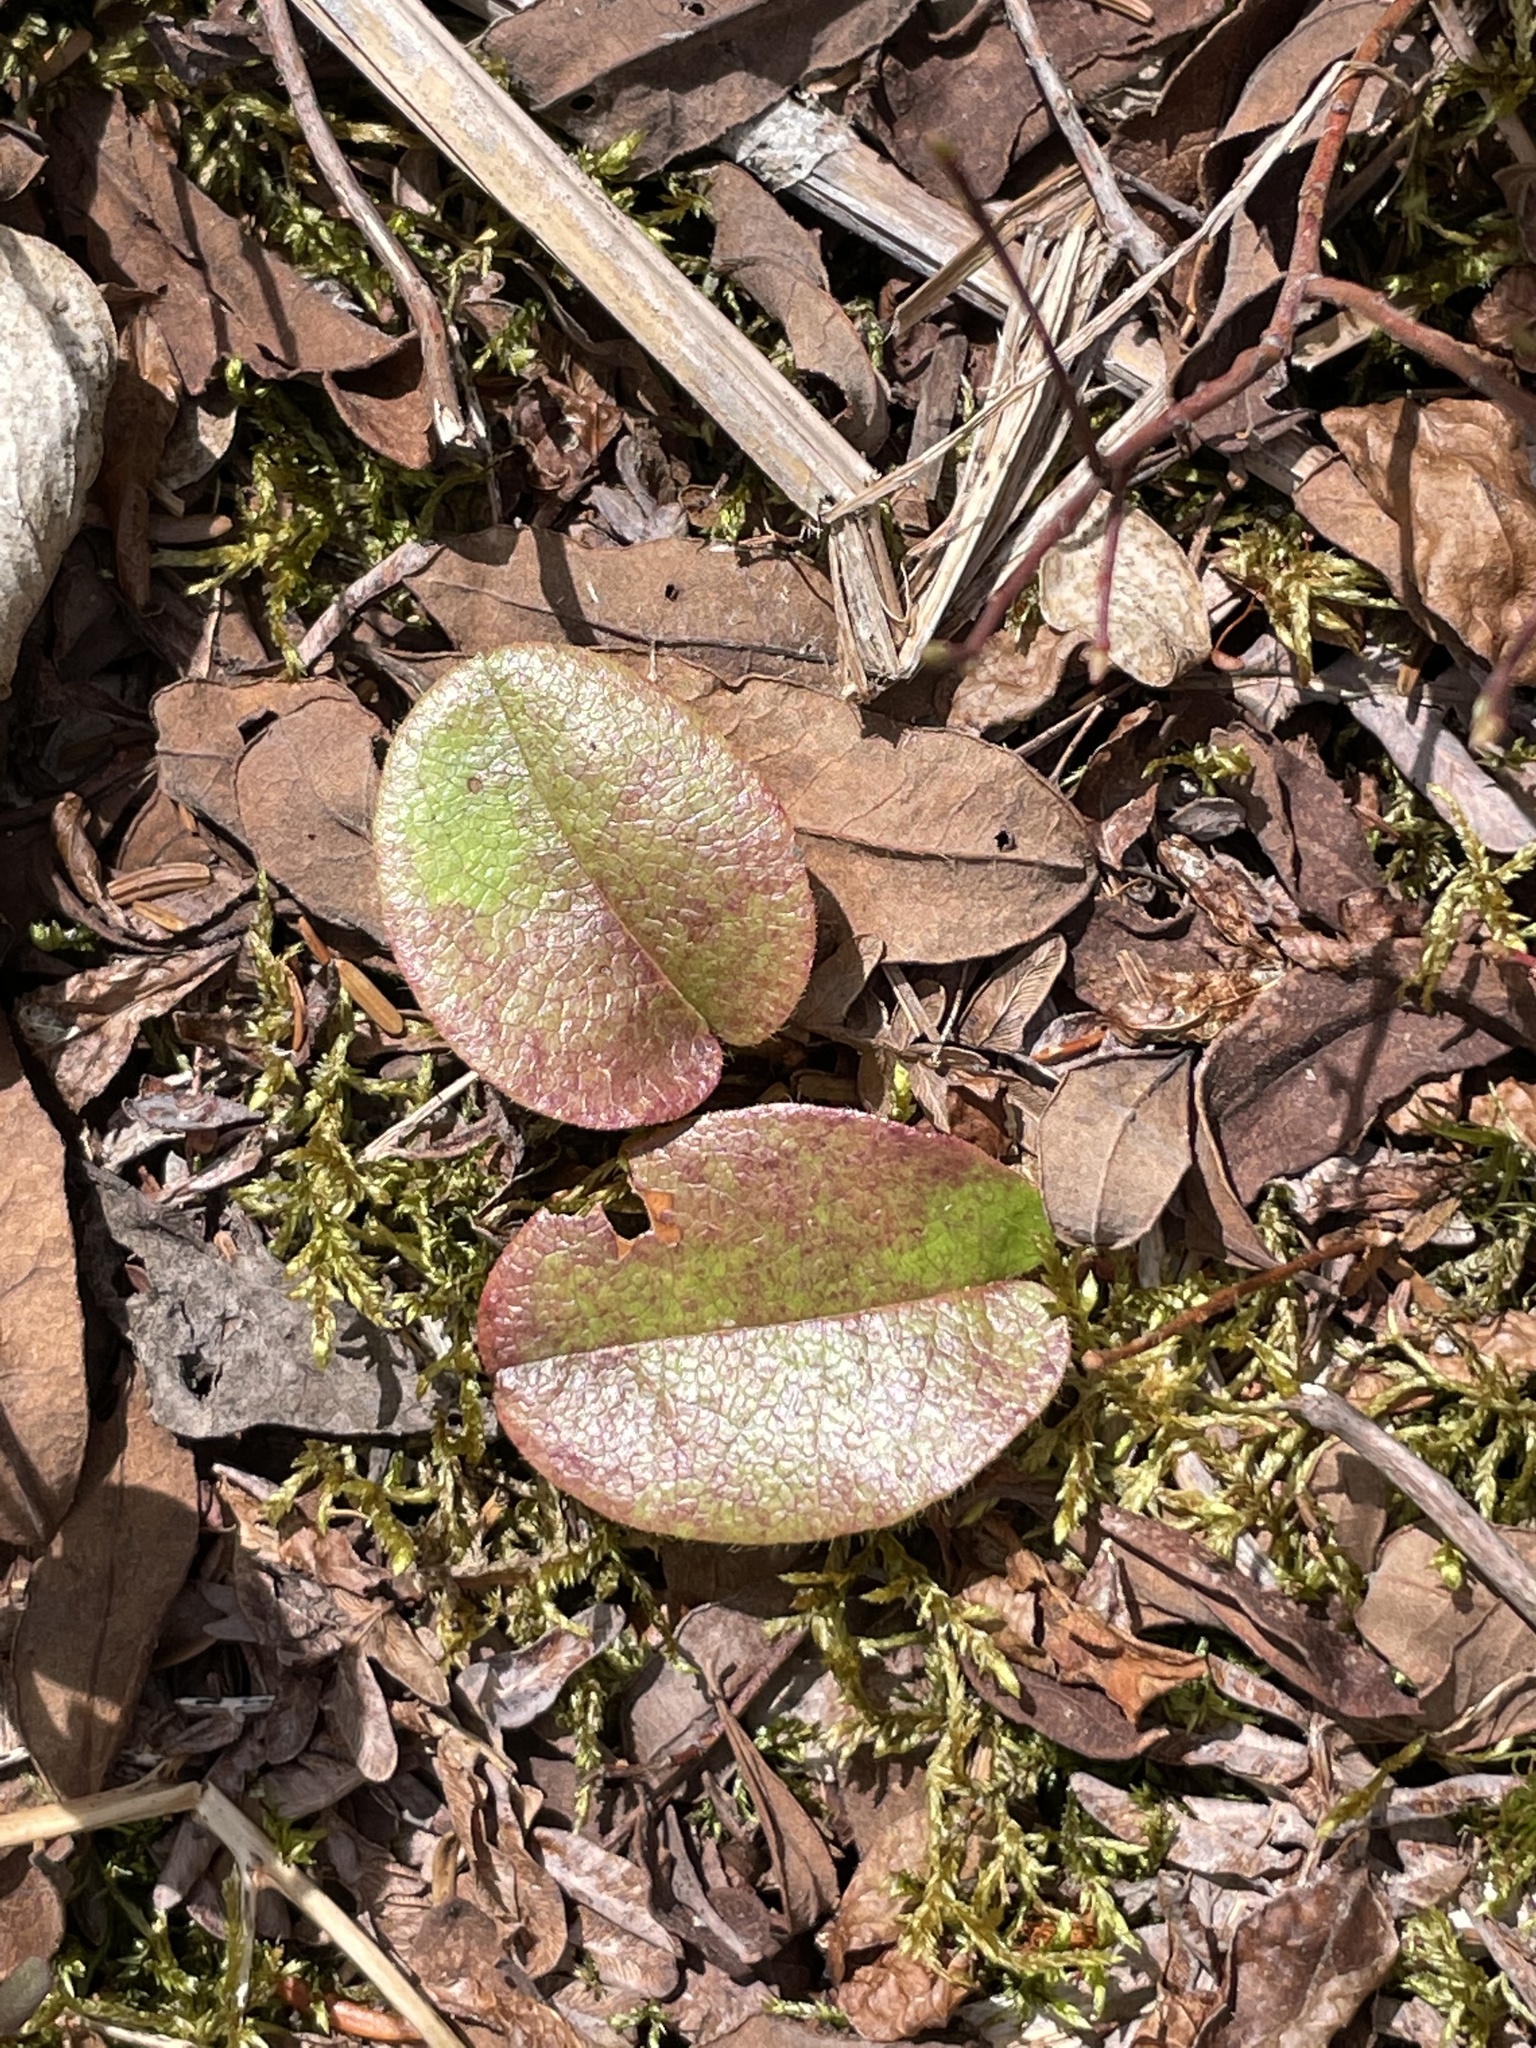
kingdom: Plantae
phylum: Tracheophyta
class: Magnoliopsida
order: Ericales
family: Ericaceae
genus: Epigaea
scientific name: Epigaea repens
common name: Gravelroot
